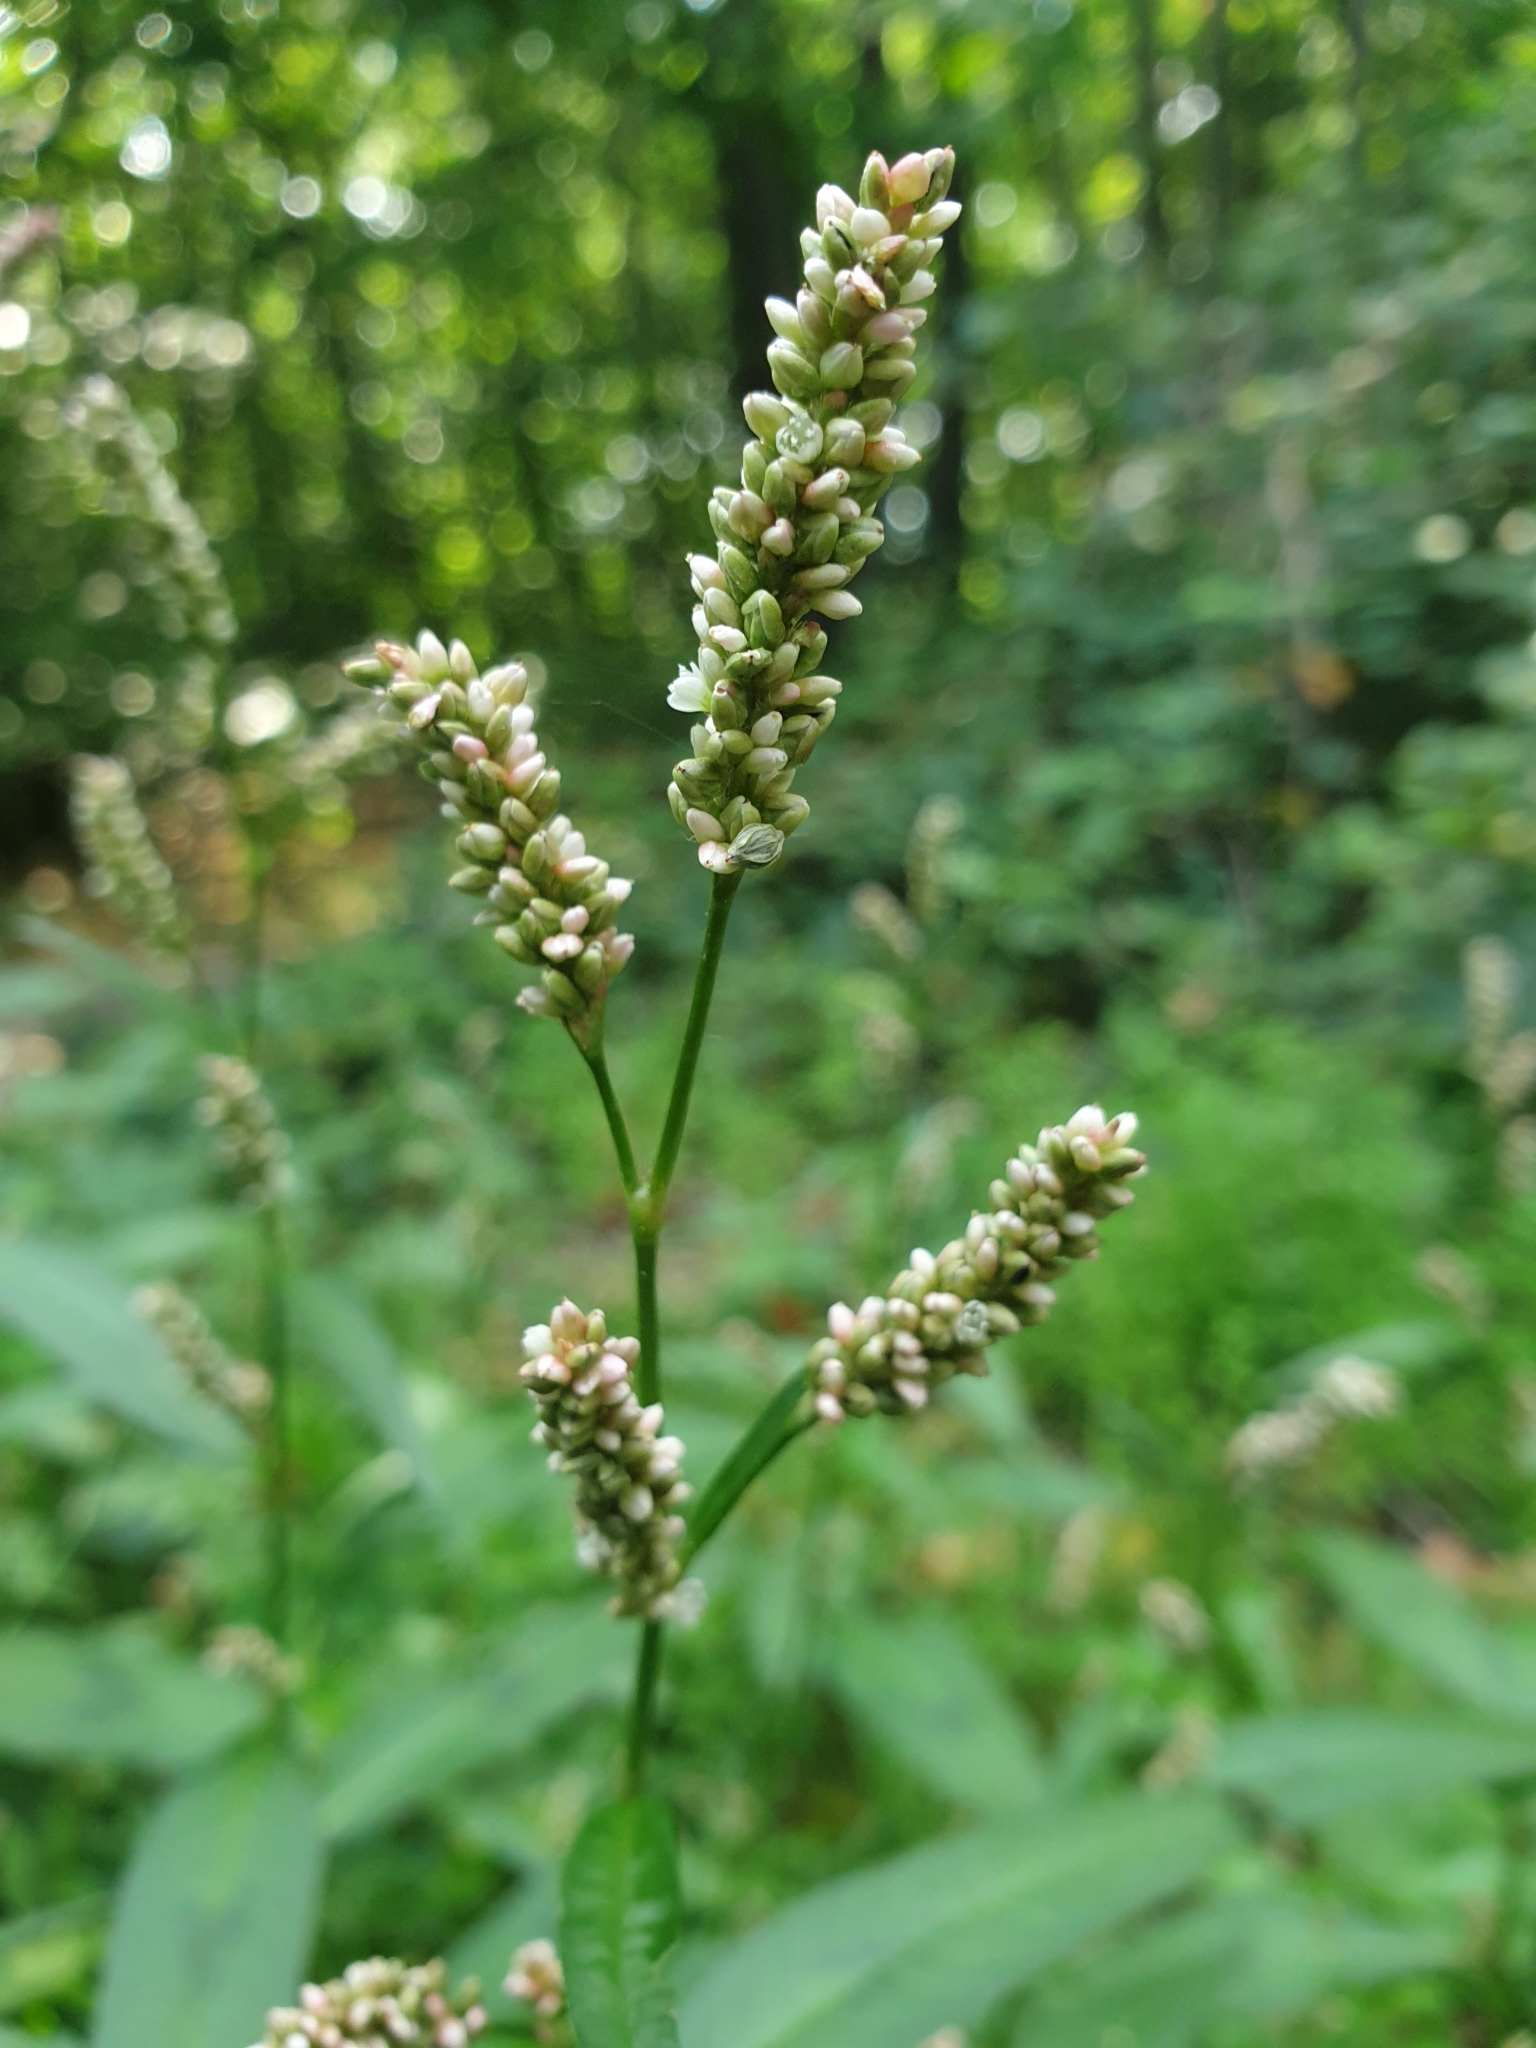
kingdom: Plantae
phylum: Tracheophyta
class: Magnoliopsida
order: Caryophyllales
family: Polygonaceae
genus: Persicaria
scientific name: Persicaria maculosa
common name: Redshank
